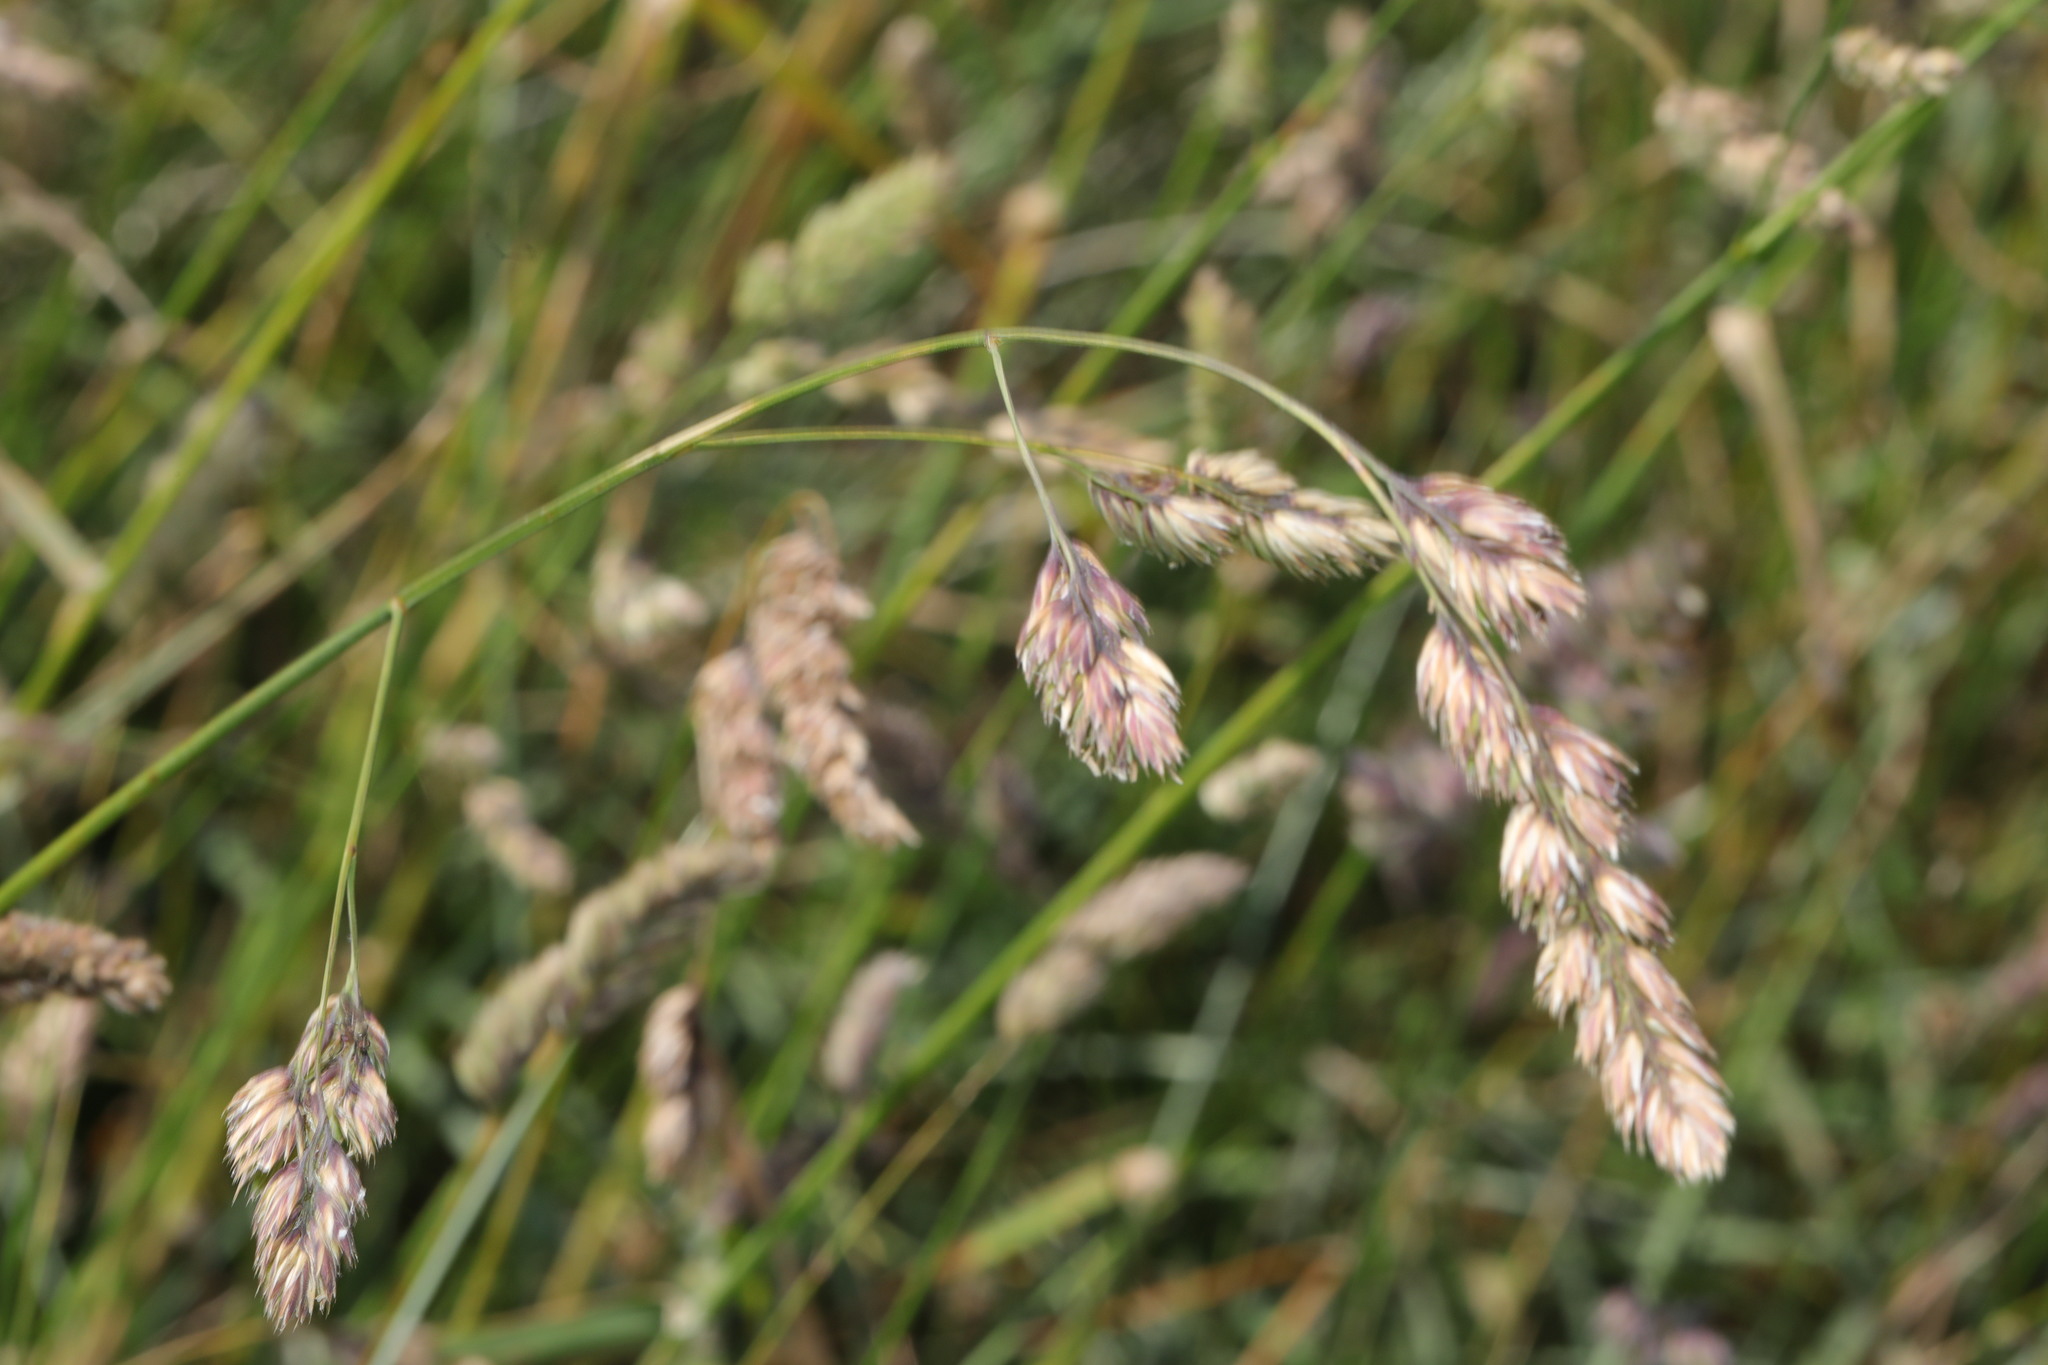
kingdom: Plantae
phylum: Tracheophyta
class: Liliopsida
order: Poales
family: Poaceae
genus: Dactylis
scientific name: Dactylis glomerata
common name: Orchardgrass
